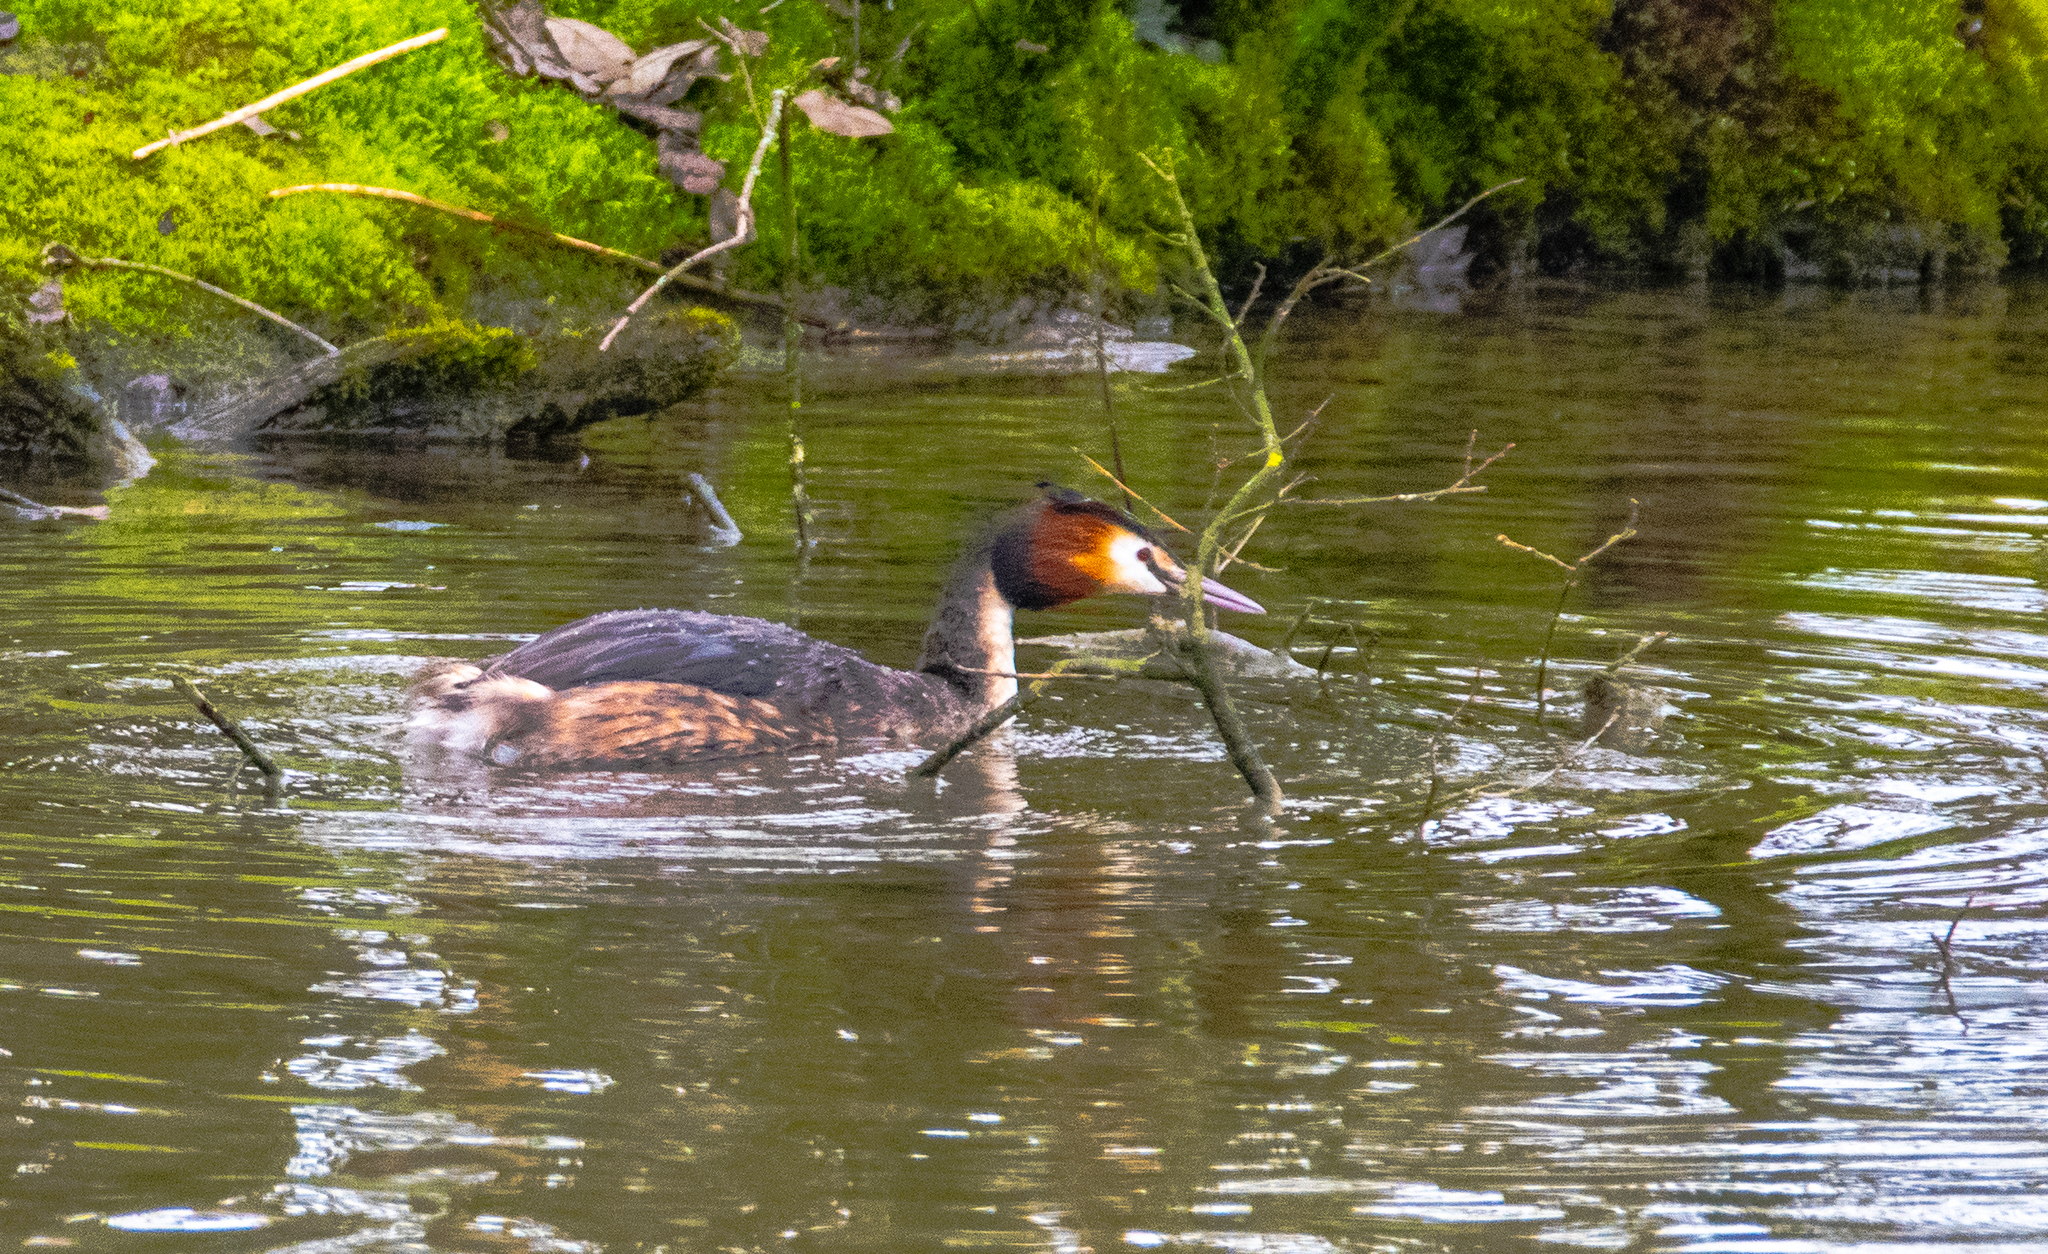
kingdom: Animalia
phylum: Chordata
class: Aves
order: Podicipediformes
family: Podicipedidae
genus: Podiceps
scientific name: Podiceps cristatus
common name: Great crested grebe
